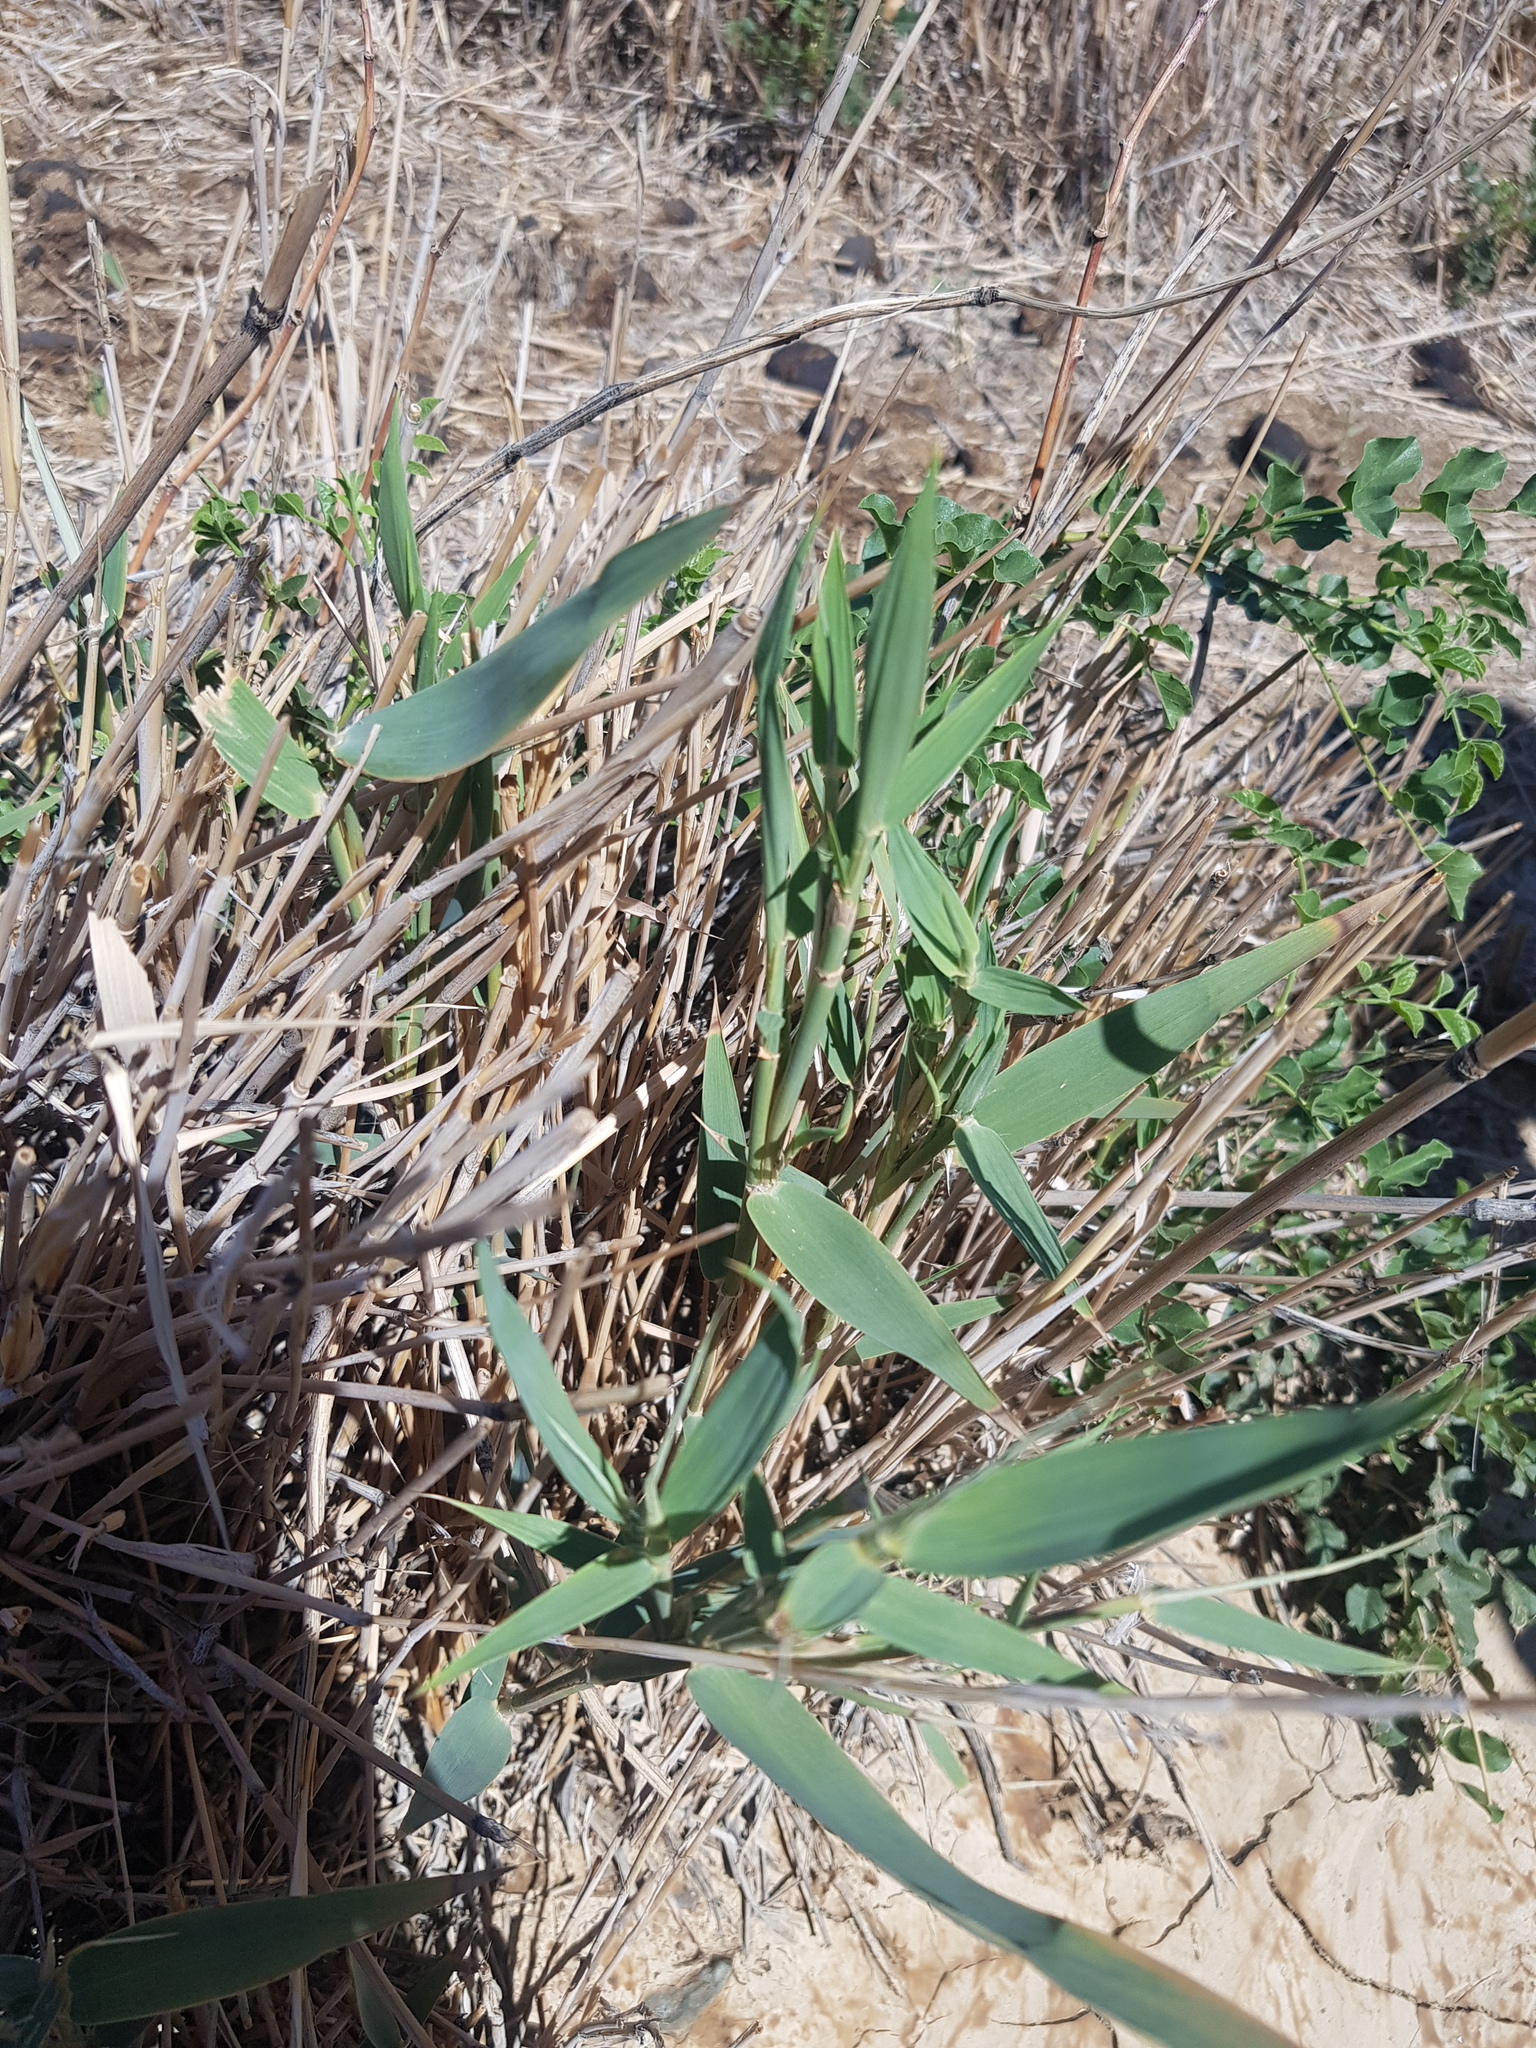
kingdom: Plantae
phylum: Tracheophyta
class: Liliopsida
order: Poales
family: Poaceae
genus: Phragmites
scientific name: Phragmites australis
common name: Common reed
